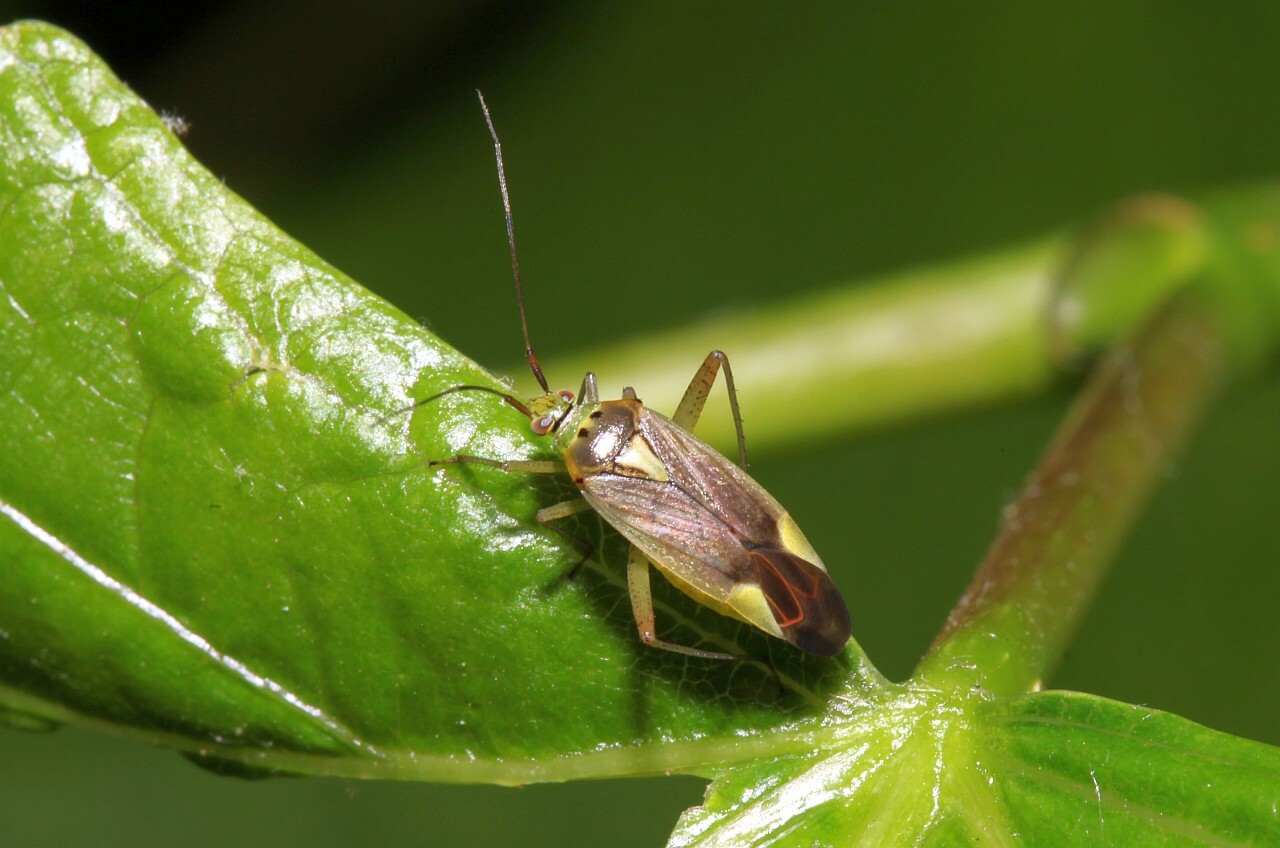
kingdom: Animalia
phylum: Arthropoda
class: Insecta
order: Hemiptera
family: Miridae
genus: Closterotomus
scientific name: Closterotomus trivialis
